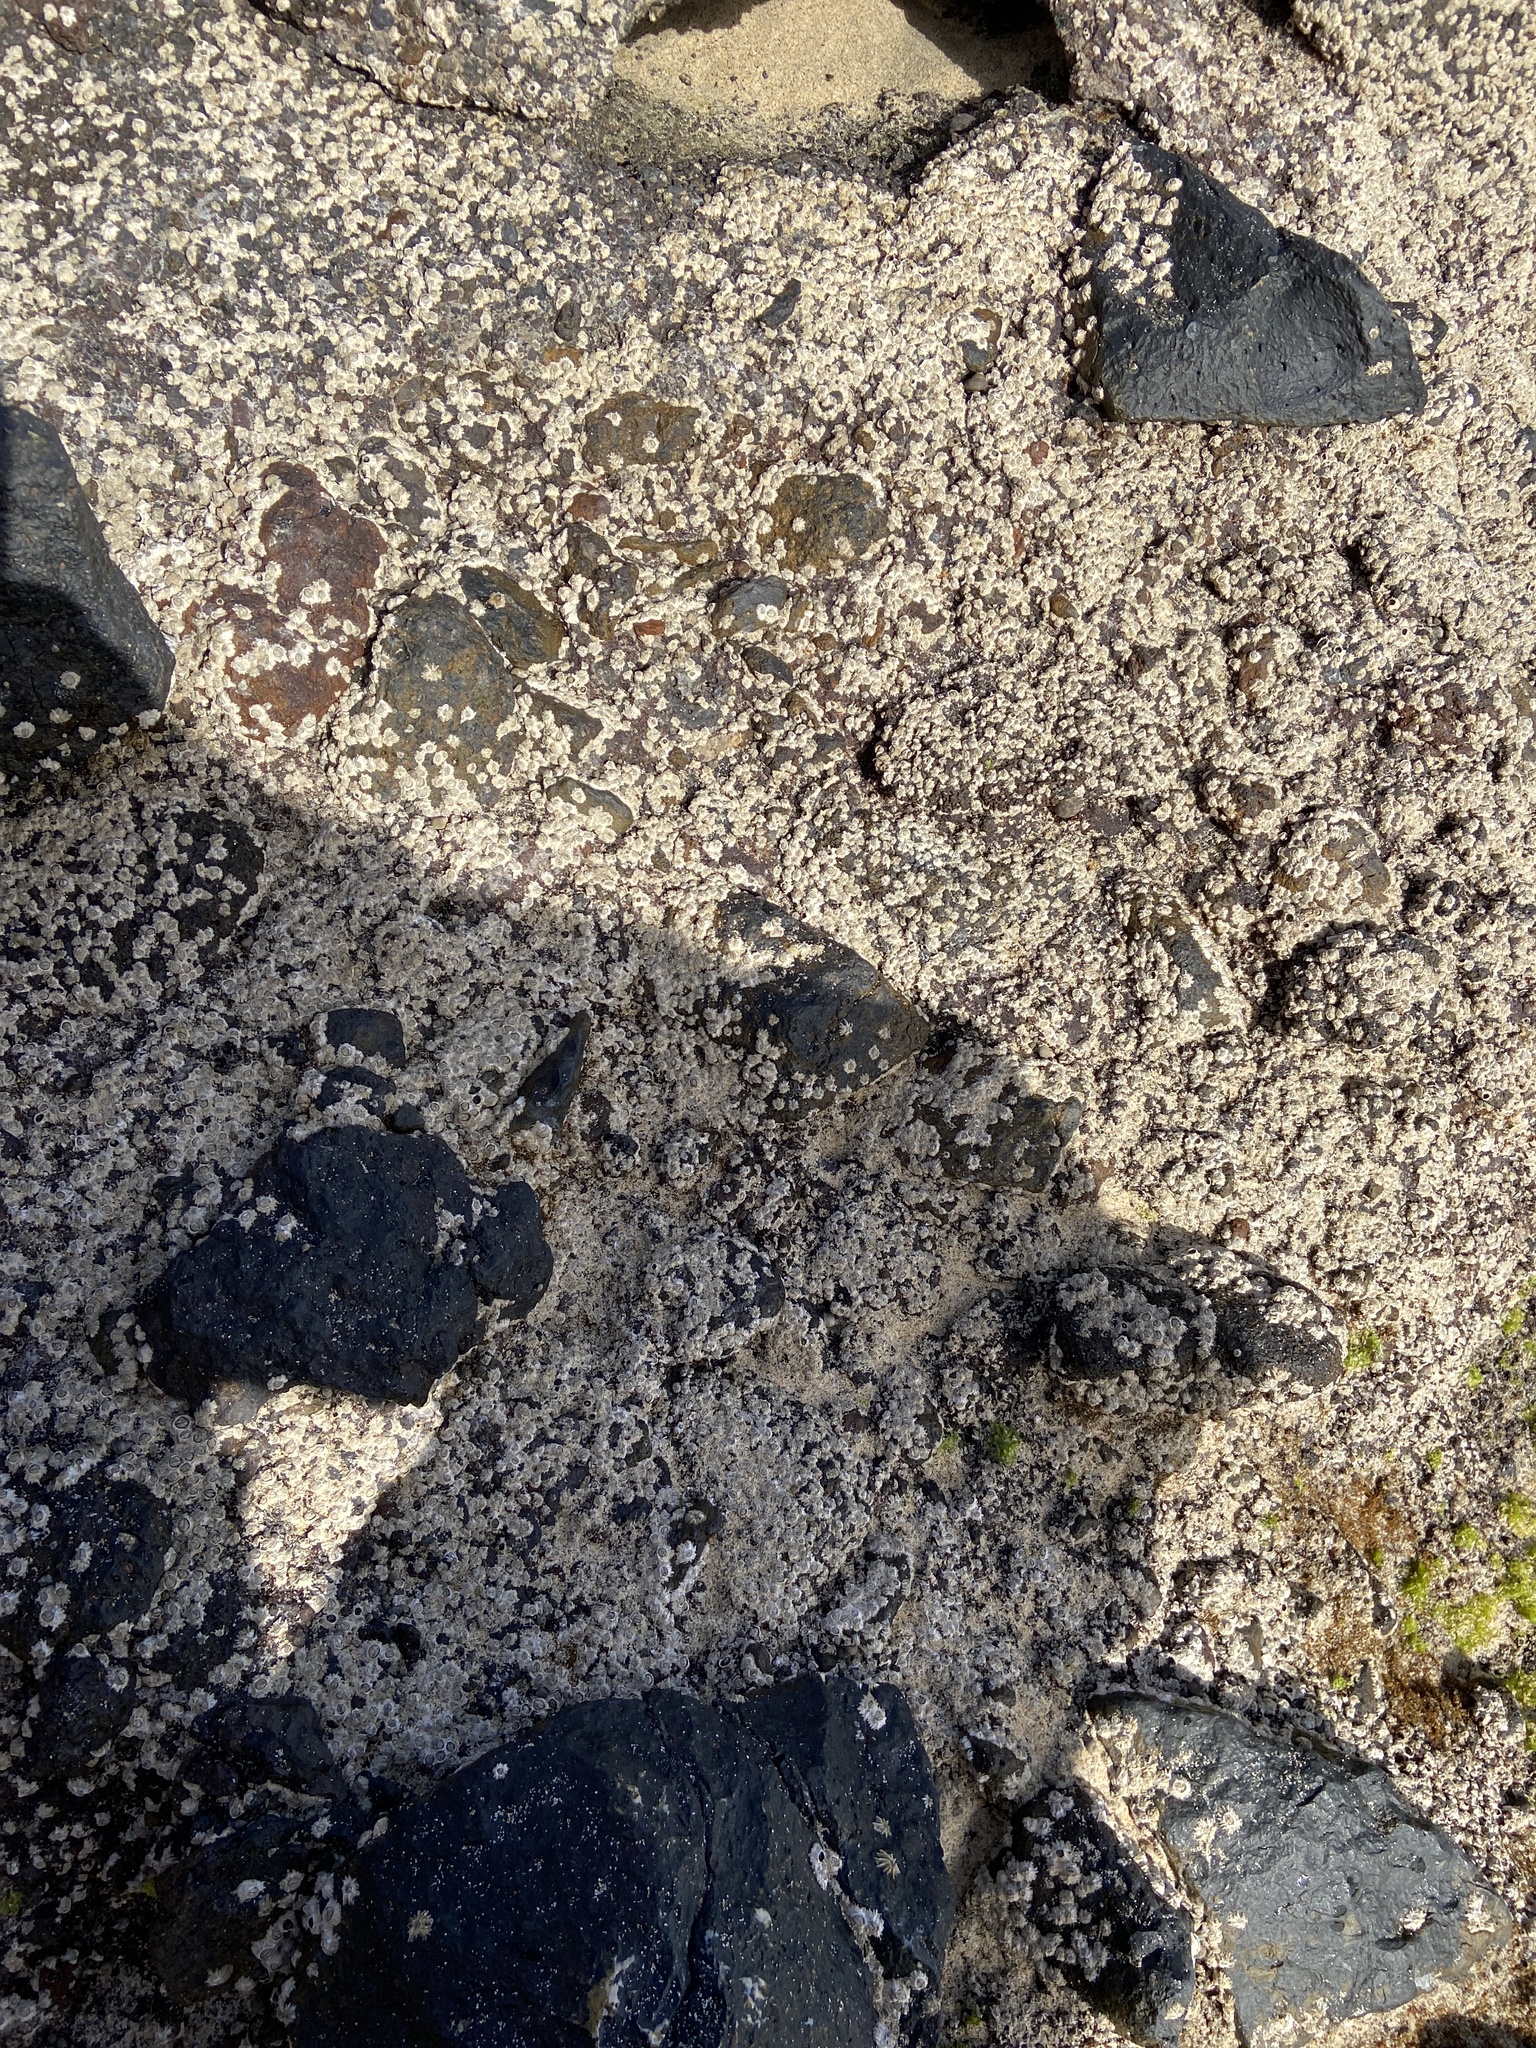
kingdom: Animalia
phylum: Arthropoda
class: Maxillopoda
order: Sessilia
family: Chthamalidae
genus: Chthamalus
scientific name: Chthamalus stellatus
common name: Poli's stellate barnacle
